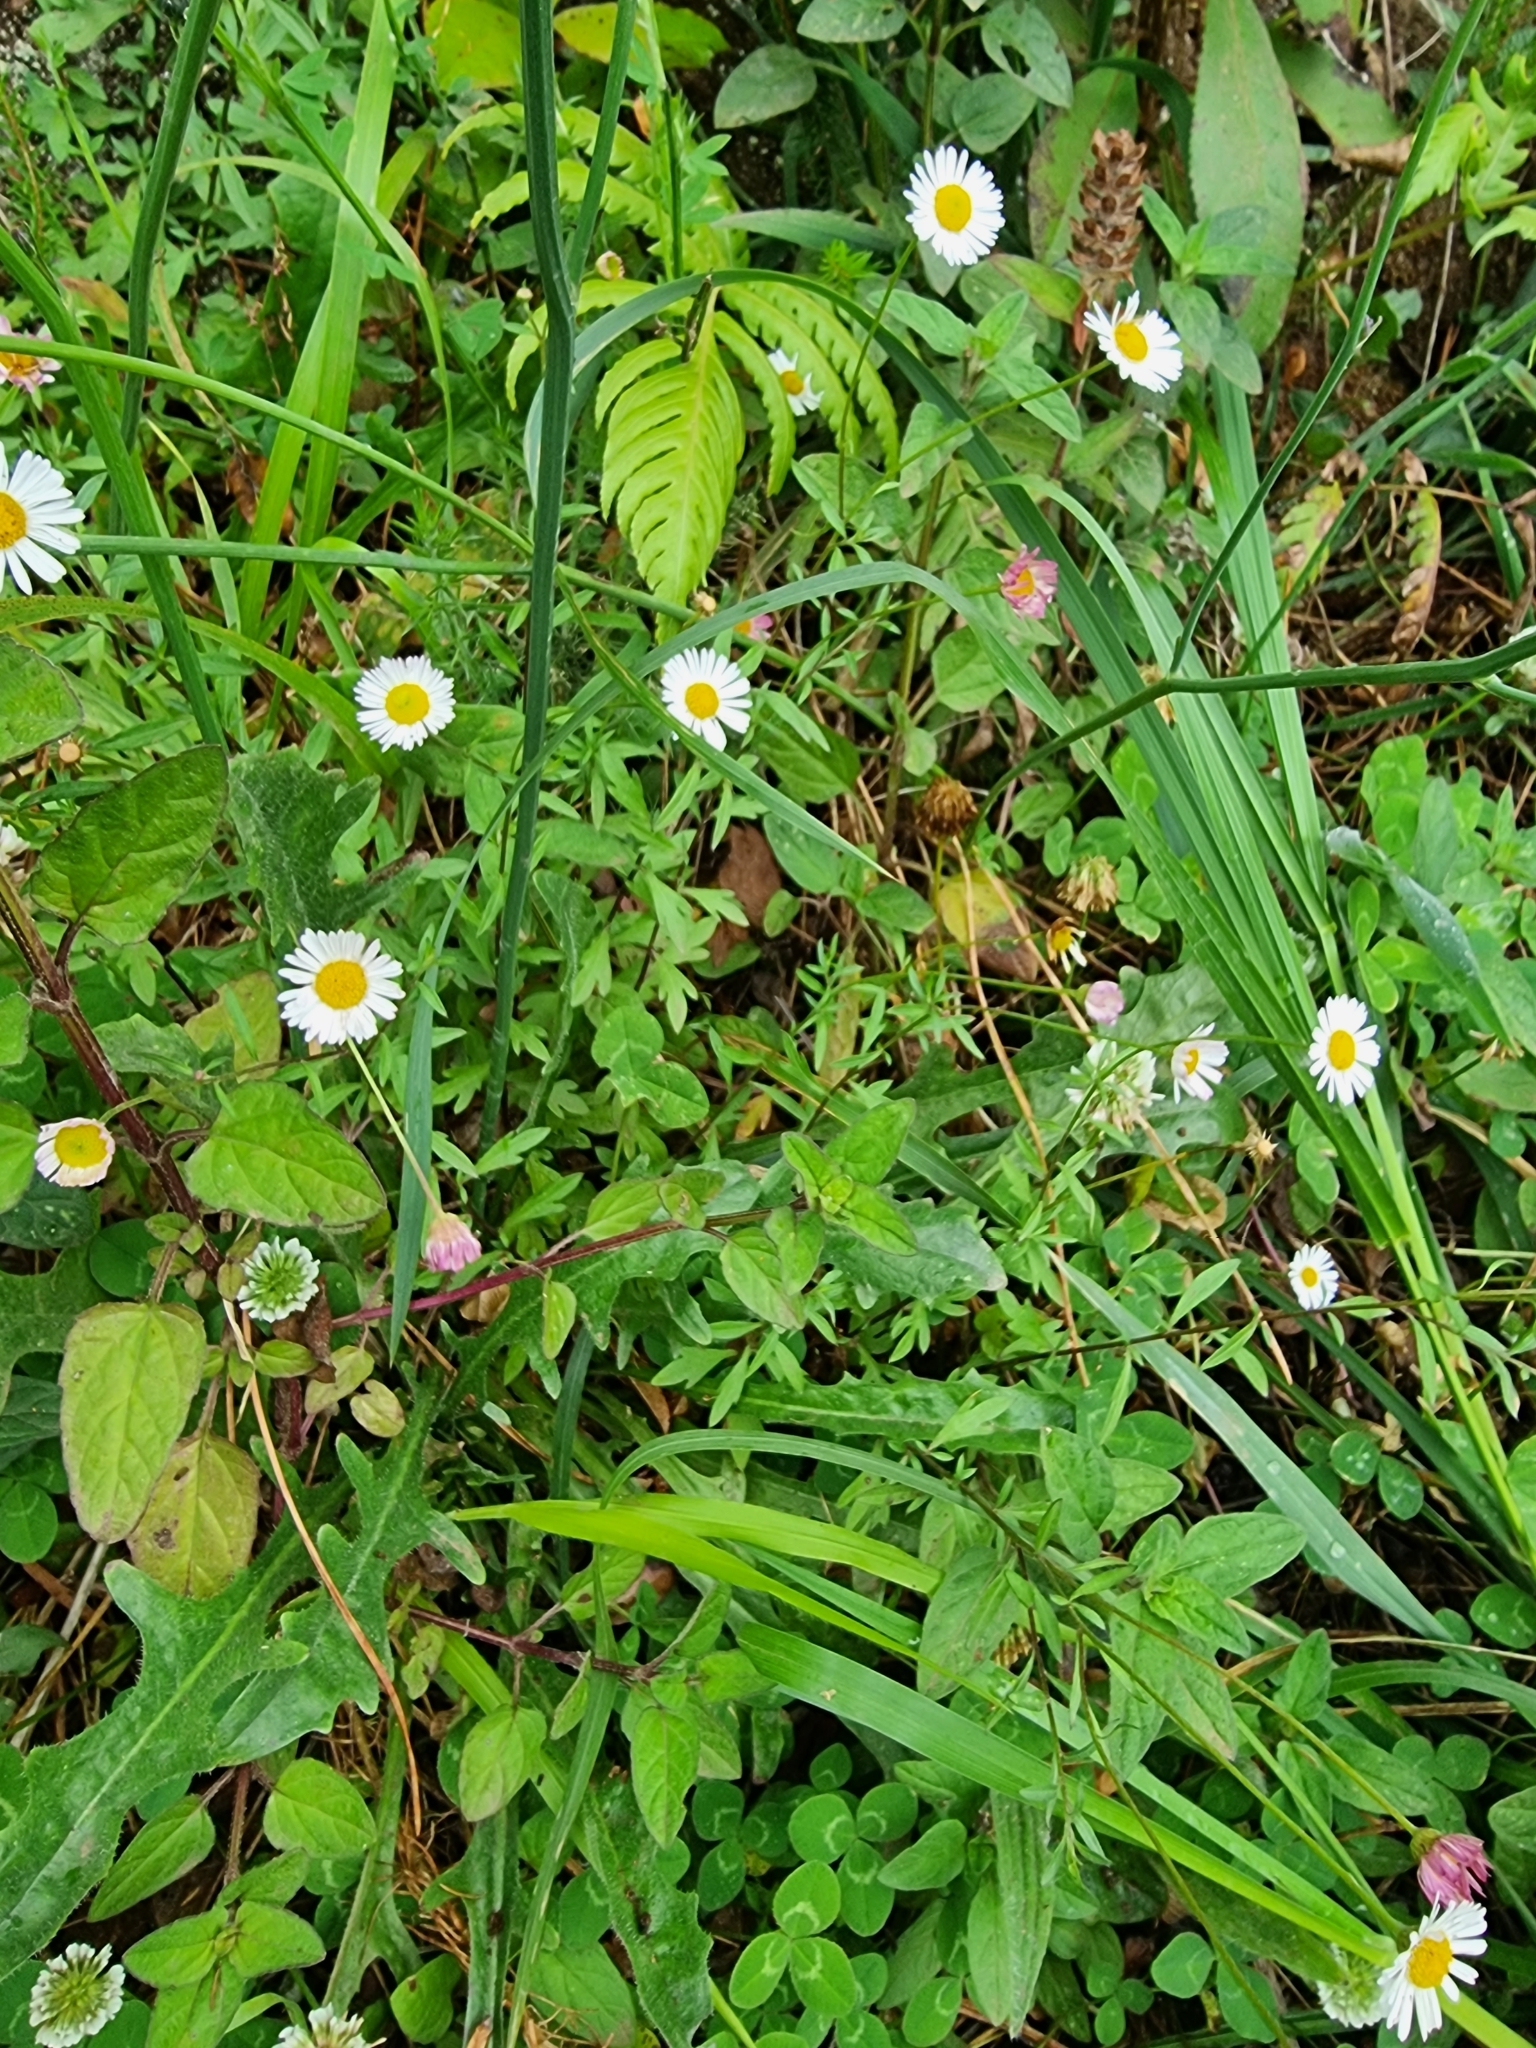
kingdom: Plantae
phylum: Tracheophyta
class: Magnoliopsida
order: Asterales
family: Asteraceae
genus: Erigeron
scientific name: Erigeron karvinskianus
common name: Mexican fleabane
